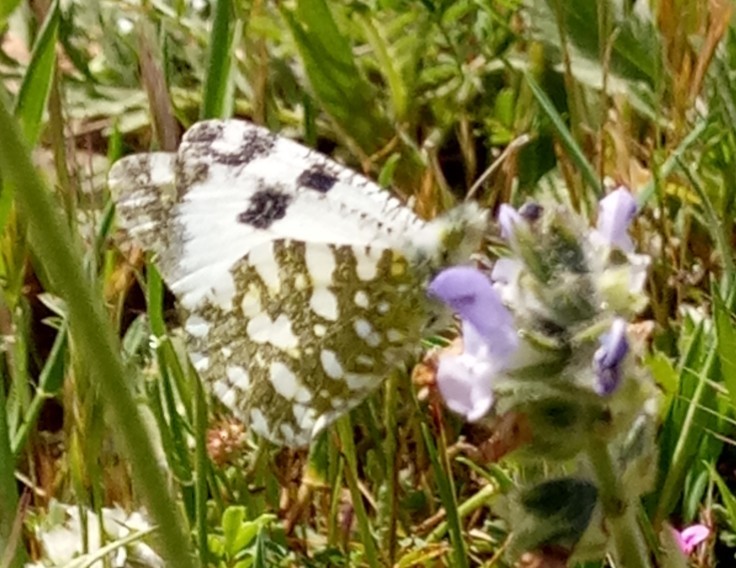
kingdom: Animalia
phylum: Arthropoda
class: Insecta
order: Lepidoptera
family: Pieridae
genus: Euchloe
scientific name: Euchloe crameri
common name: Western dappled white
